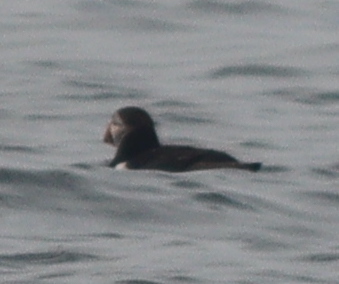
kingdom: Animalia
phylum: Chordata
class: Aves
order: Charadriiformes
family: Alcidae
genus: Fratercula
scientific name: Fratercula arctica
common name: Atlantic puffin
